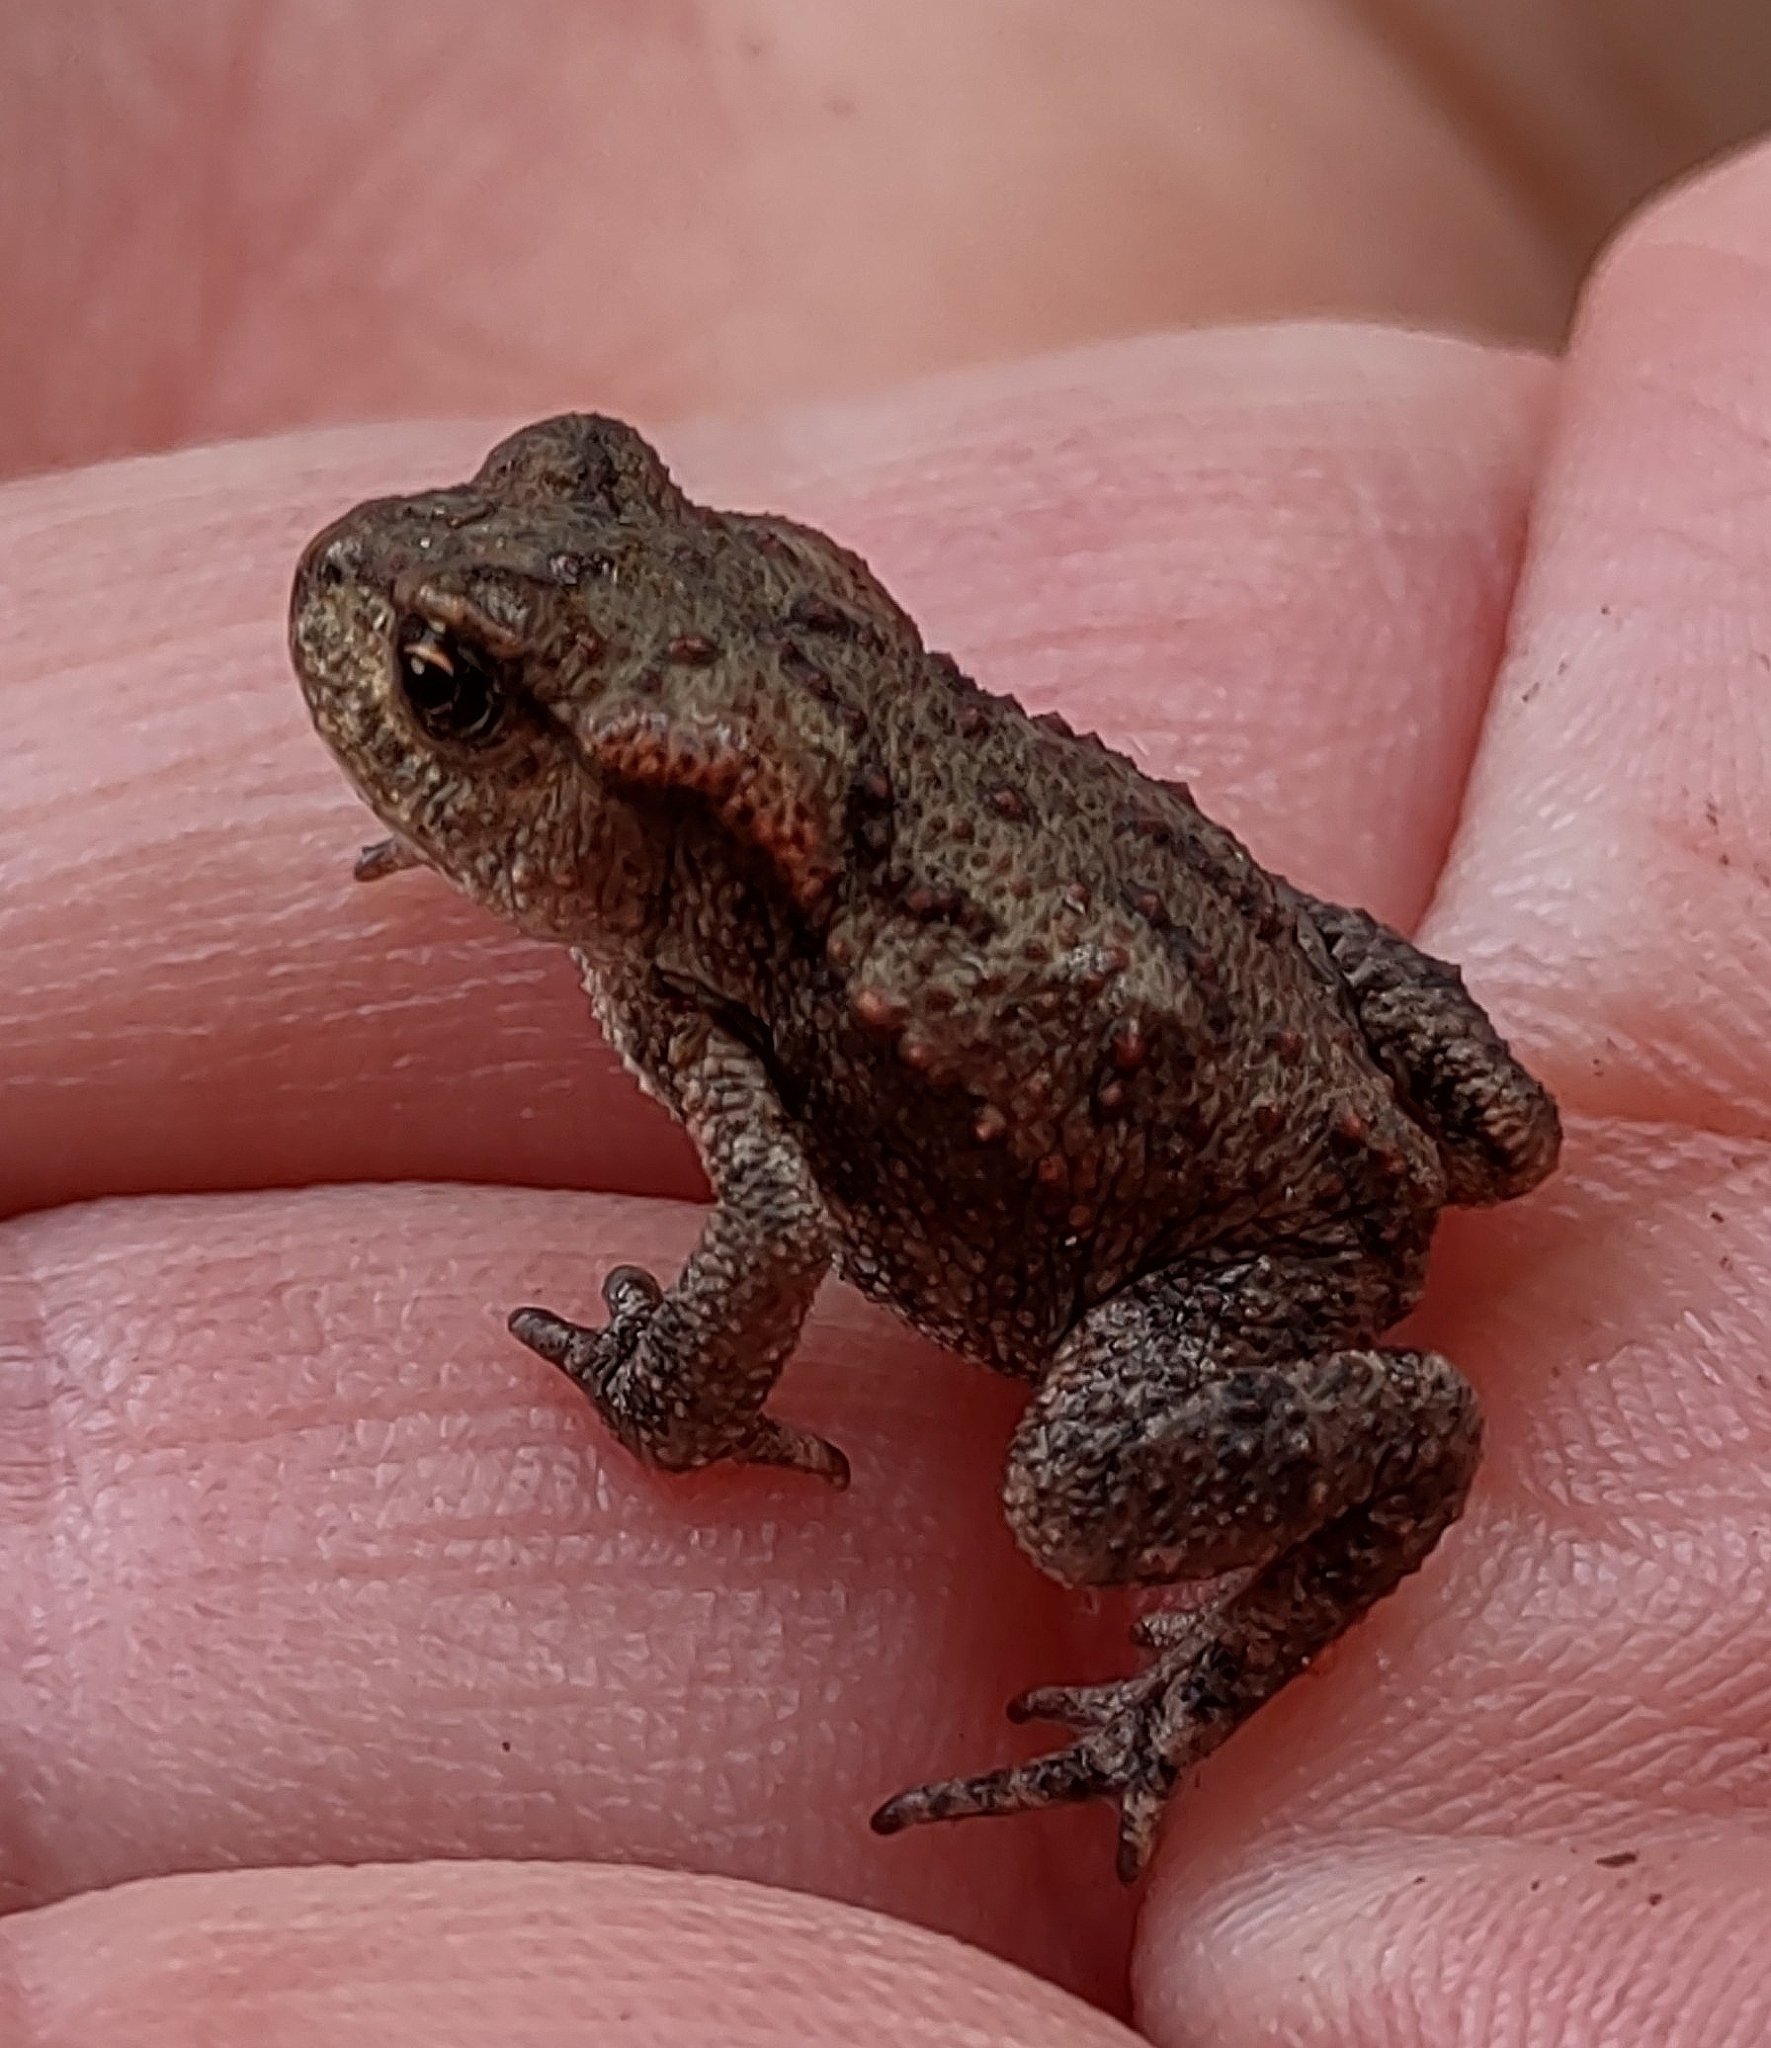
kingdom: Animalia
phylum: Chordata
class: Amphibia
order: Anura
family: Bufonidae
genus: Bufo
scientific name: Bufo bufo
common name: Common toad
